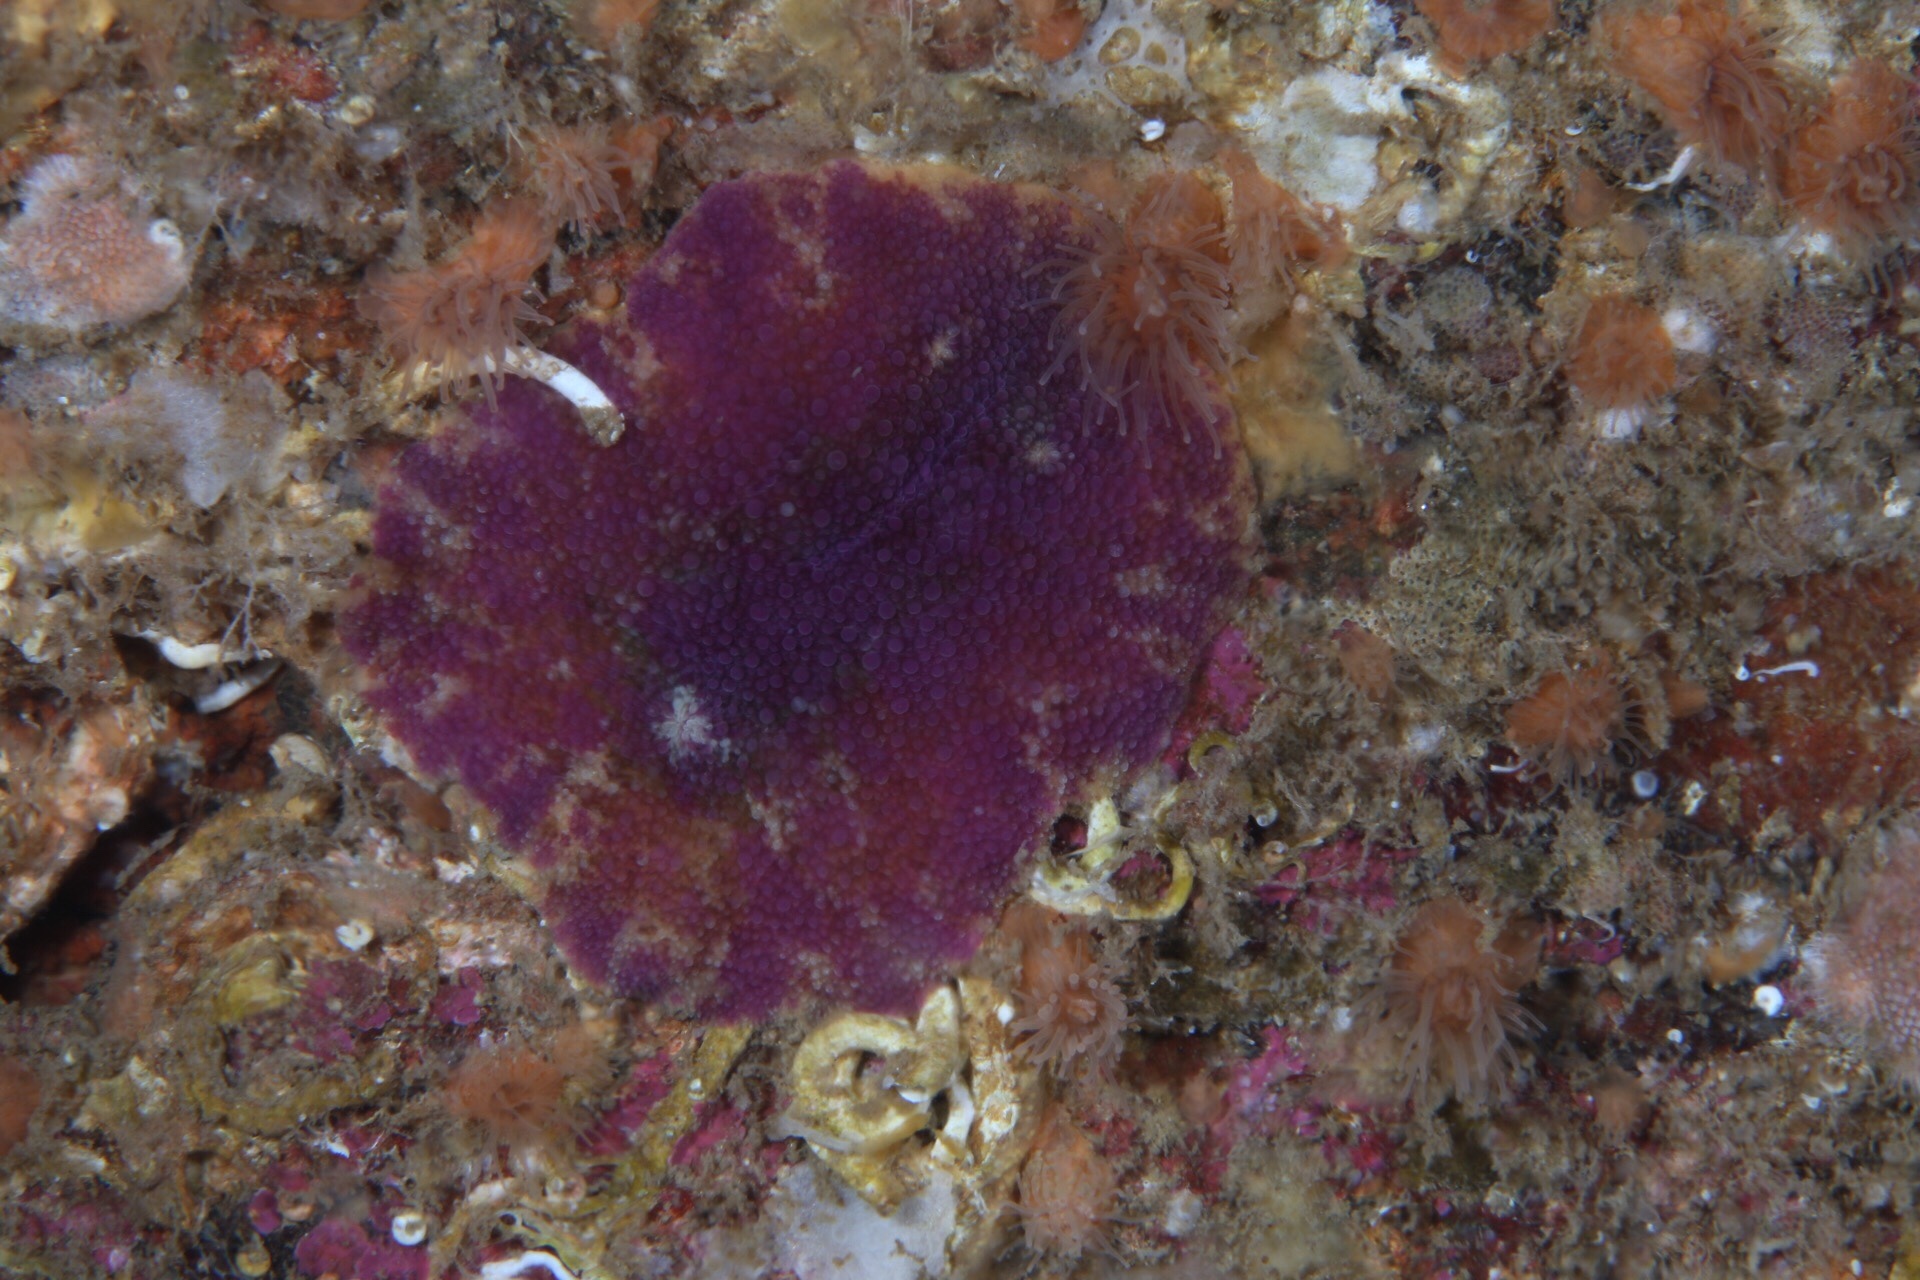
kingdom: Animalia
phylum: Mollusca
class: Gastropoda
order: Nudibranchia
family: Dorididae
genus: Doris
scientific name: Doris pseudoargus
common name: Sea lemon
